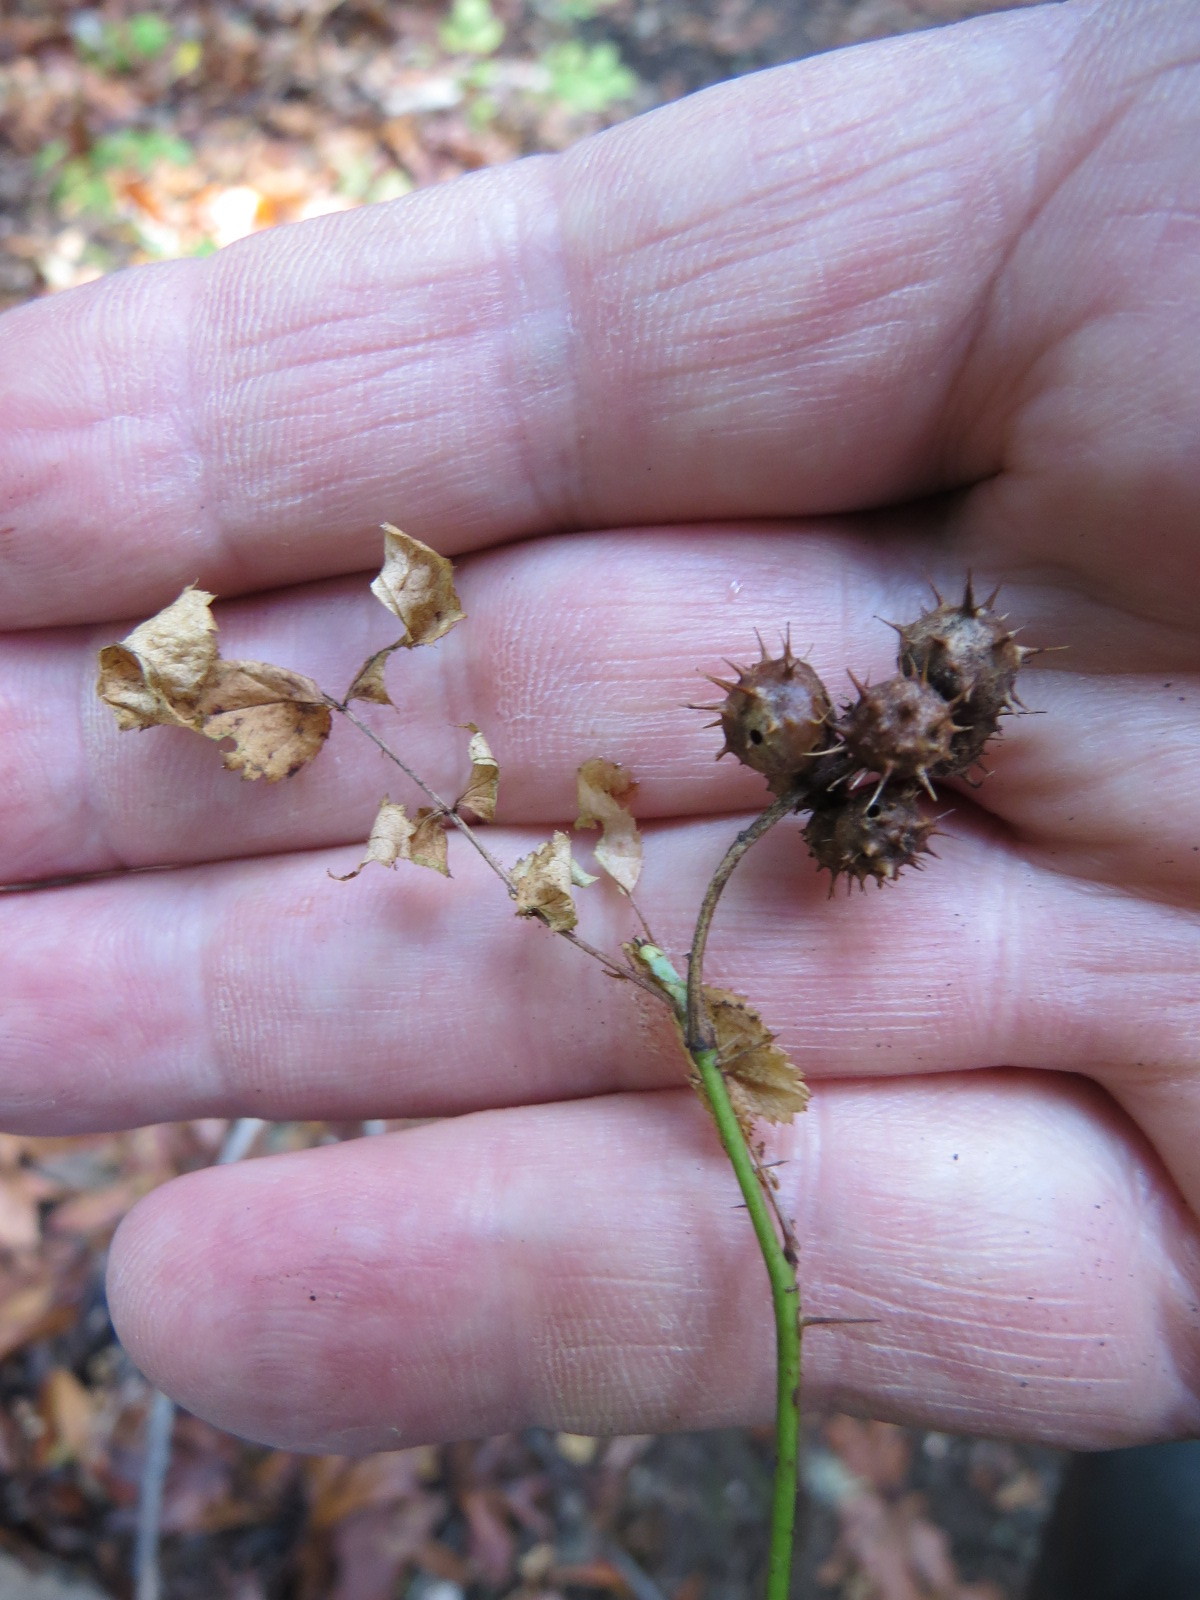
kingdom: Animalia
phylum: Arthropoda
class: Insecta
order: Hymenoptera
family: Cynipidae
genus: Diplolepis
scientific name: Diplolepis polita
